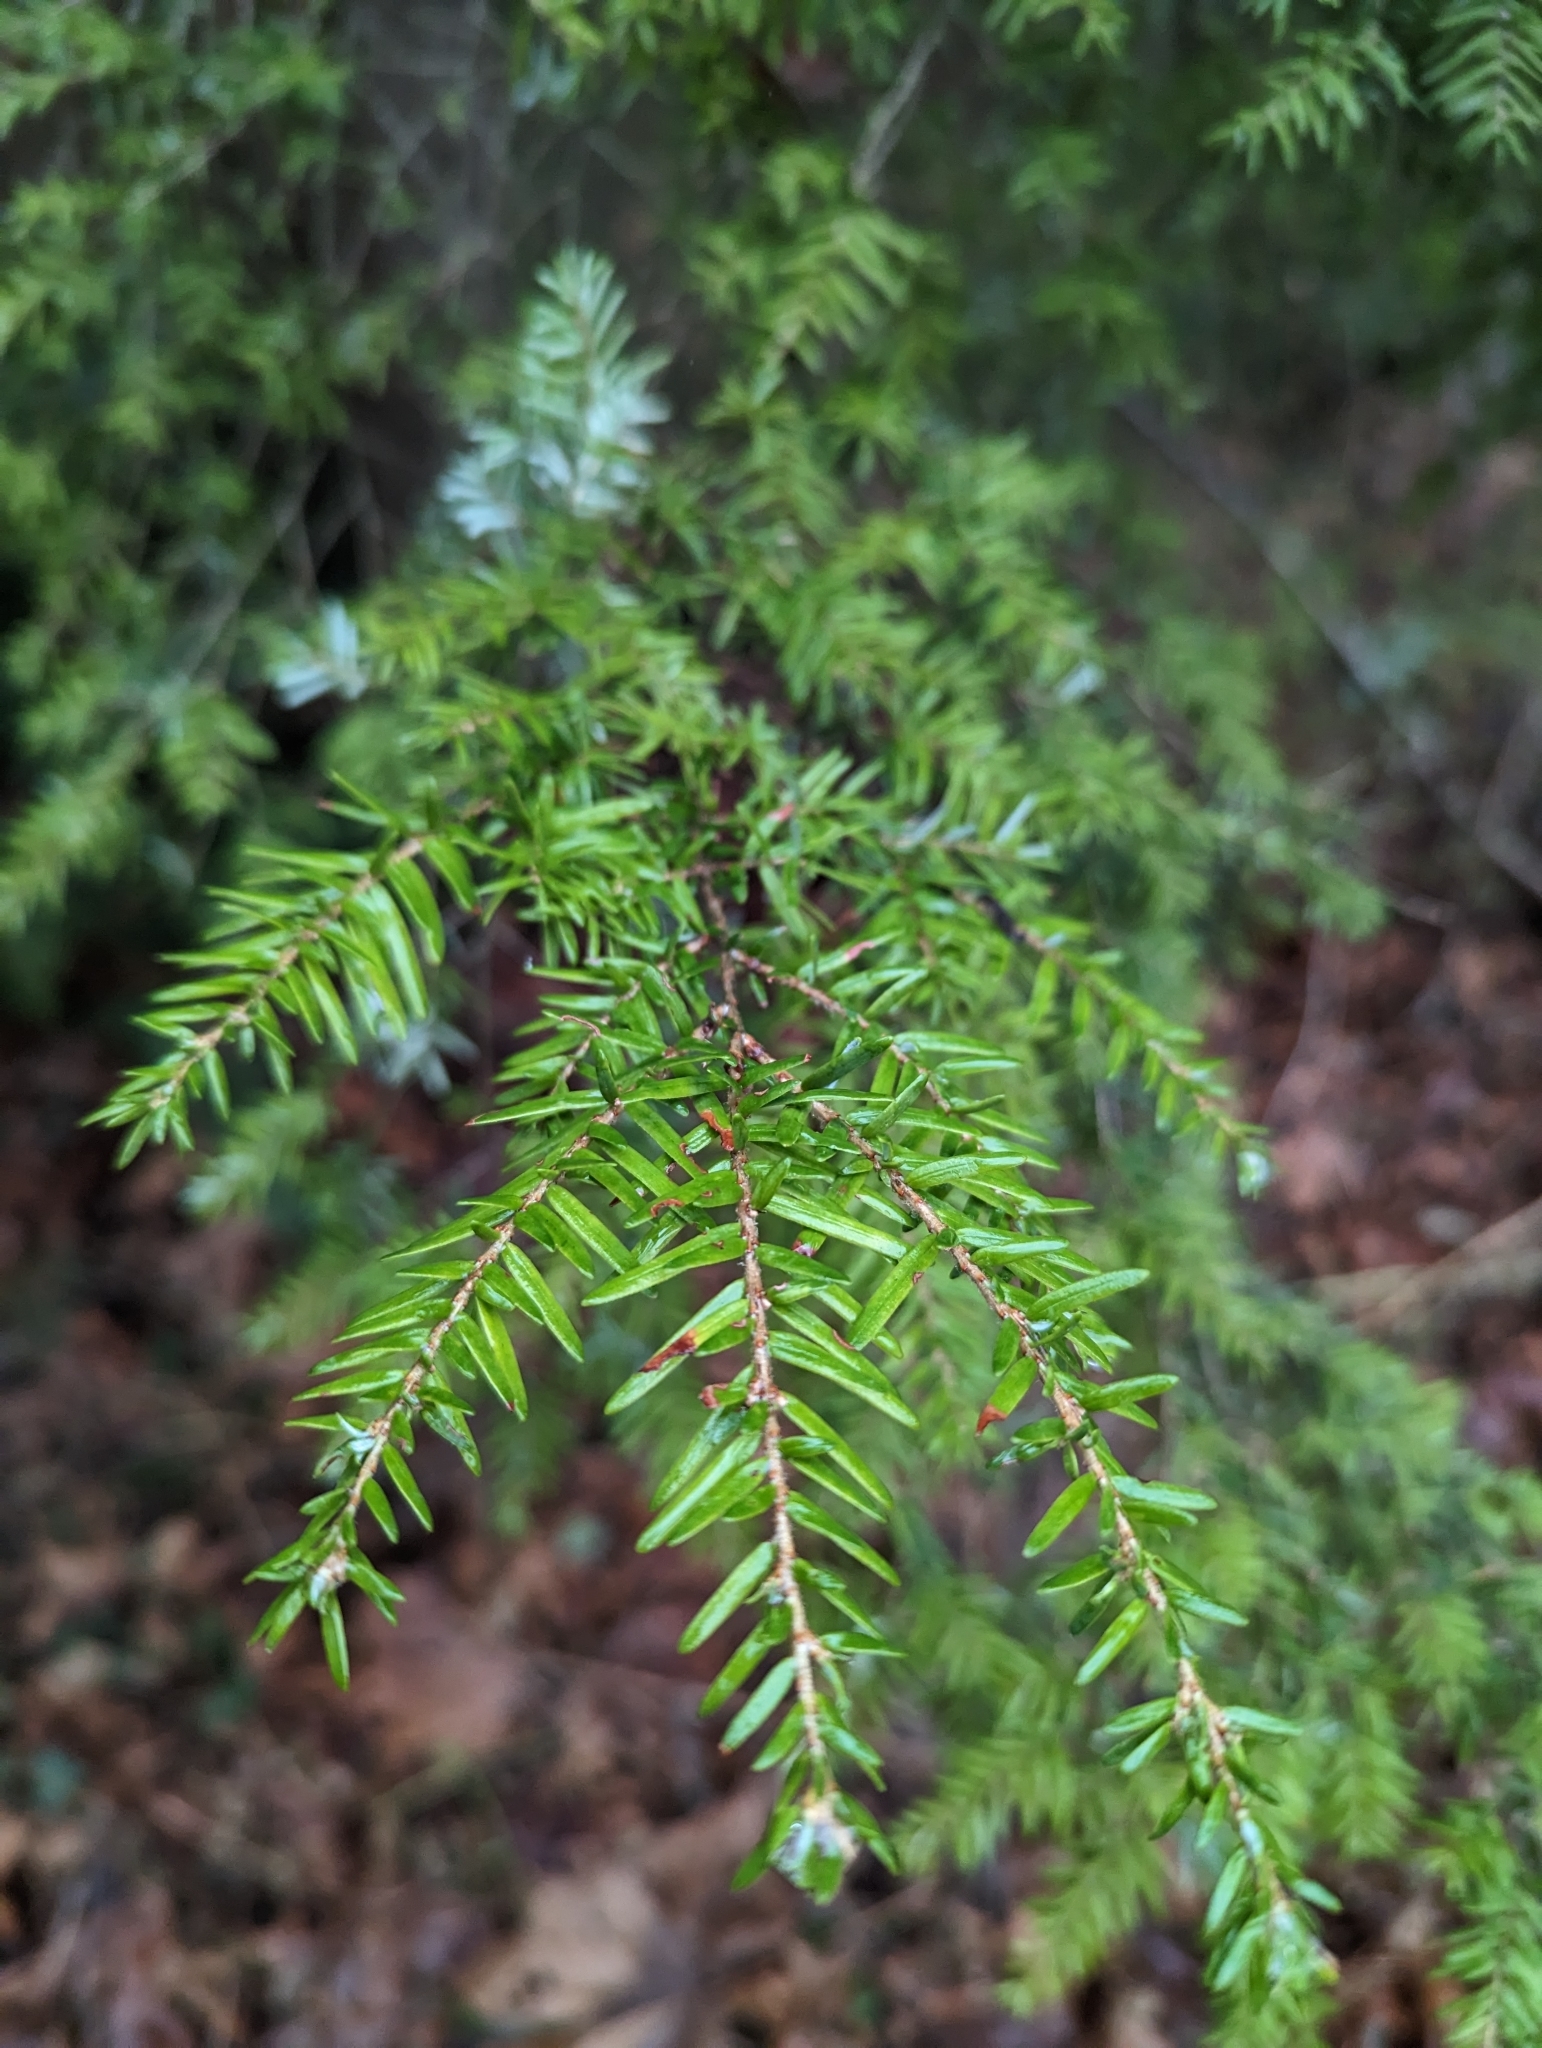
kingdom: Plantae
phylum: Tracheophyta
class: Pinopsida
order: Pinales
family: Pinaceae
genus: Tsuga
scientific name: Tsuga heterophylla
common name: Western hemlock
